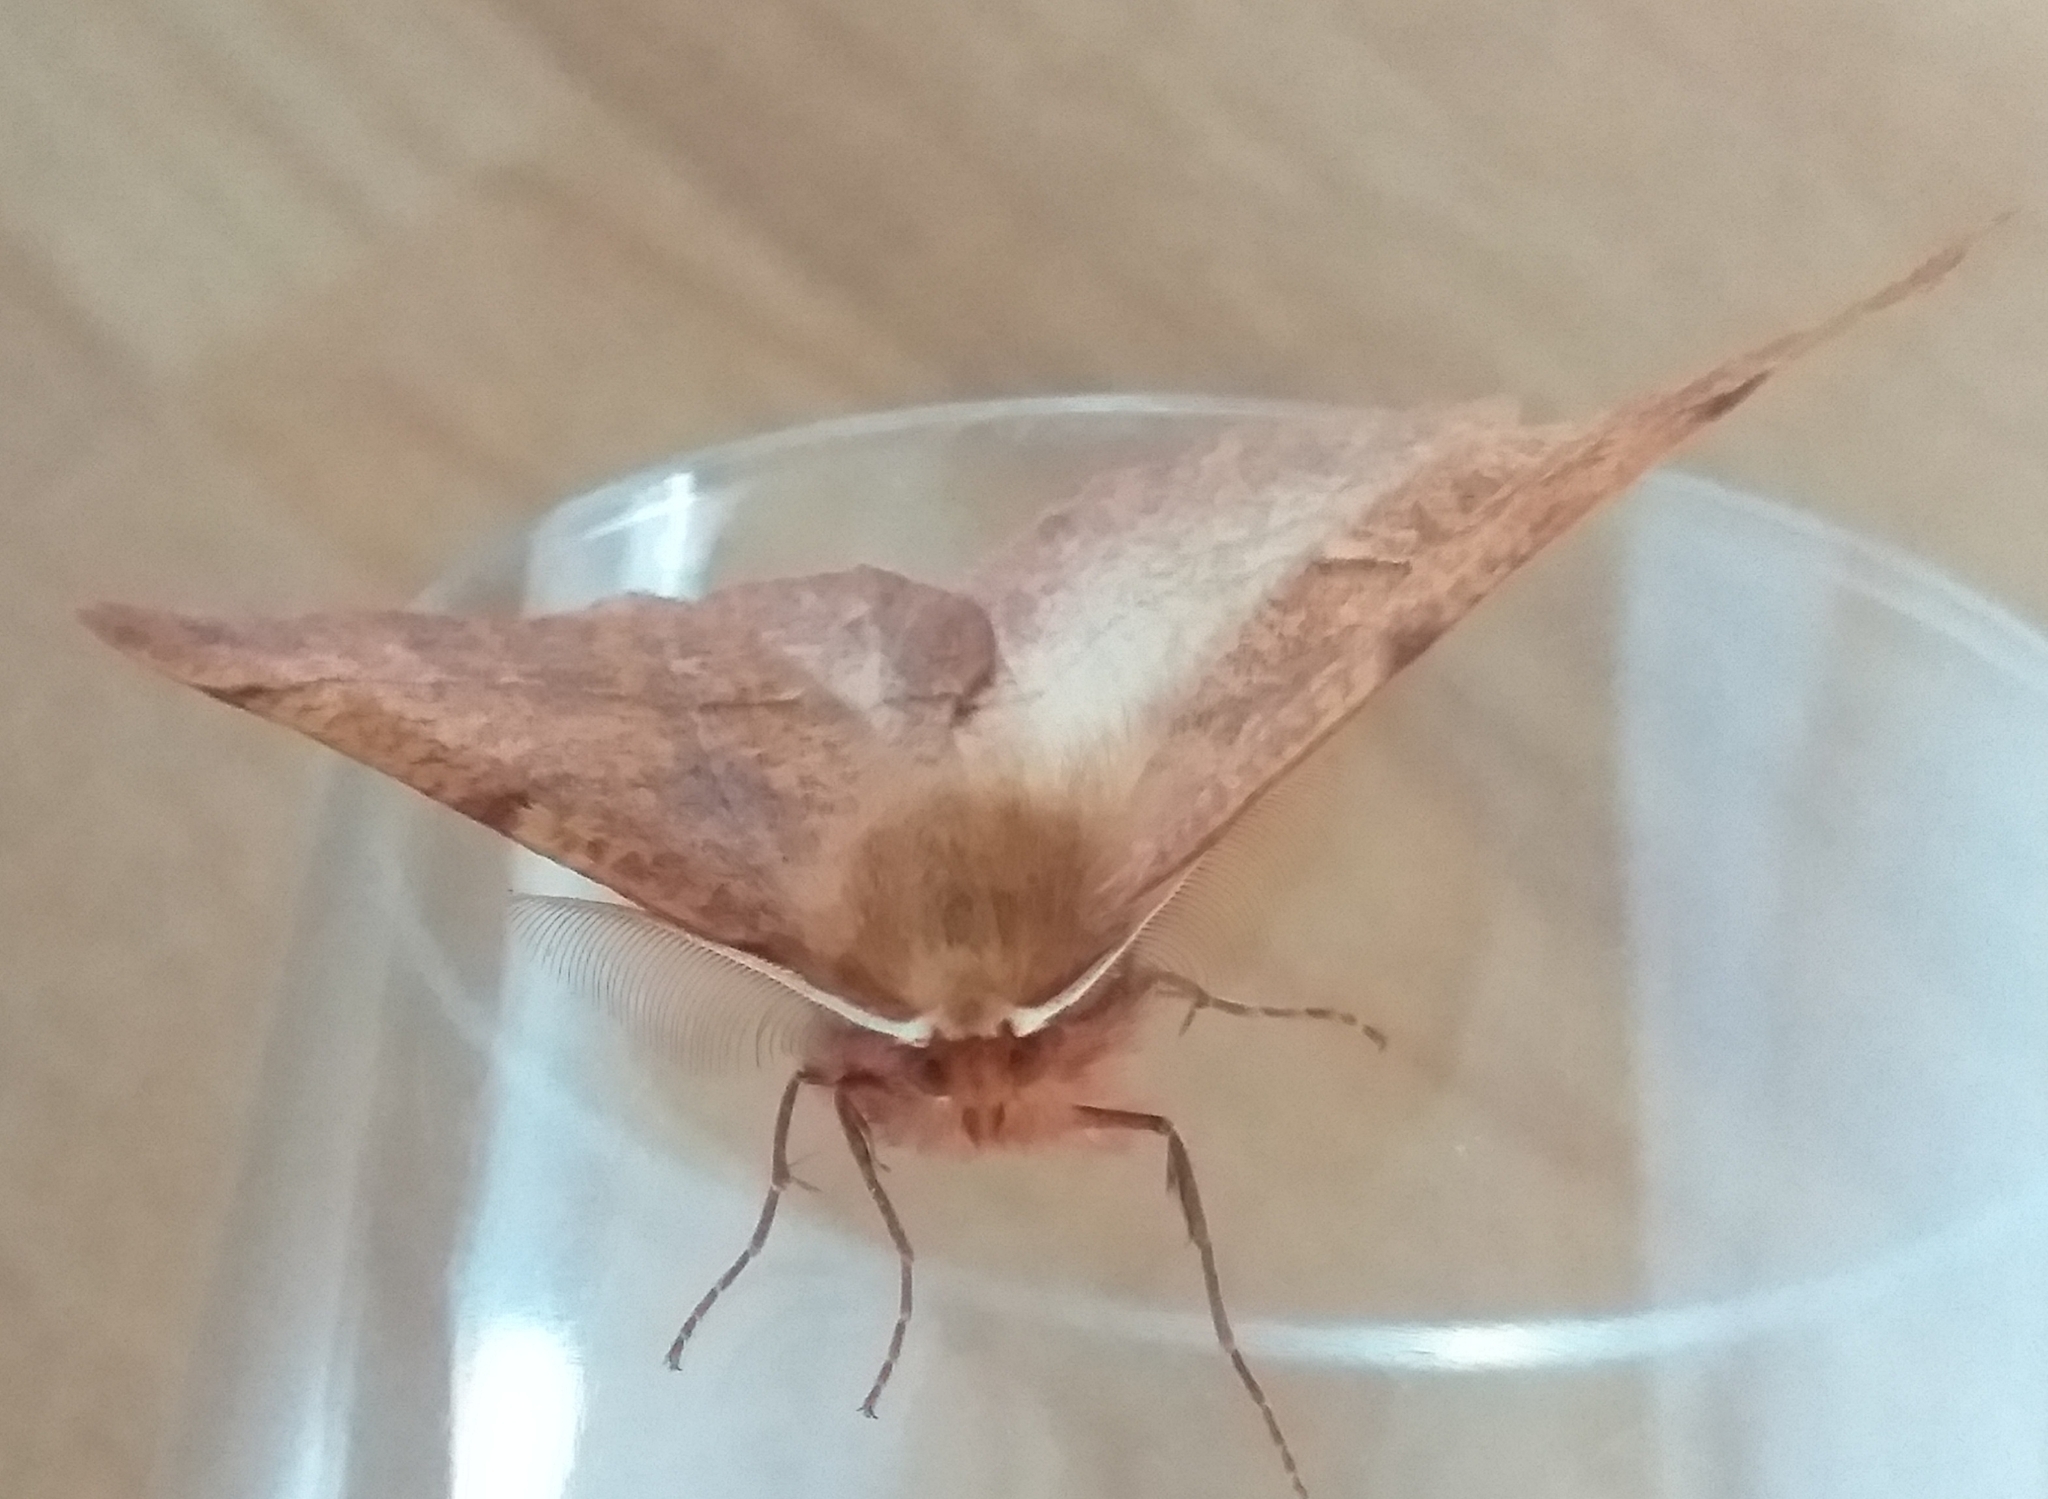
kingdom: Animalia
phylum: Arthropoda
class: Insecta
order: Lepidoptera
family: Geometridae
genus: Colotois
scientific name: Colotois pennaria
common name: Feathered thorn
